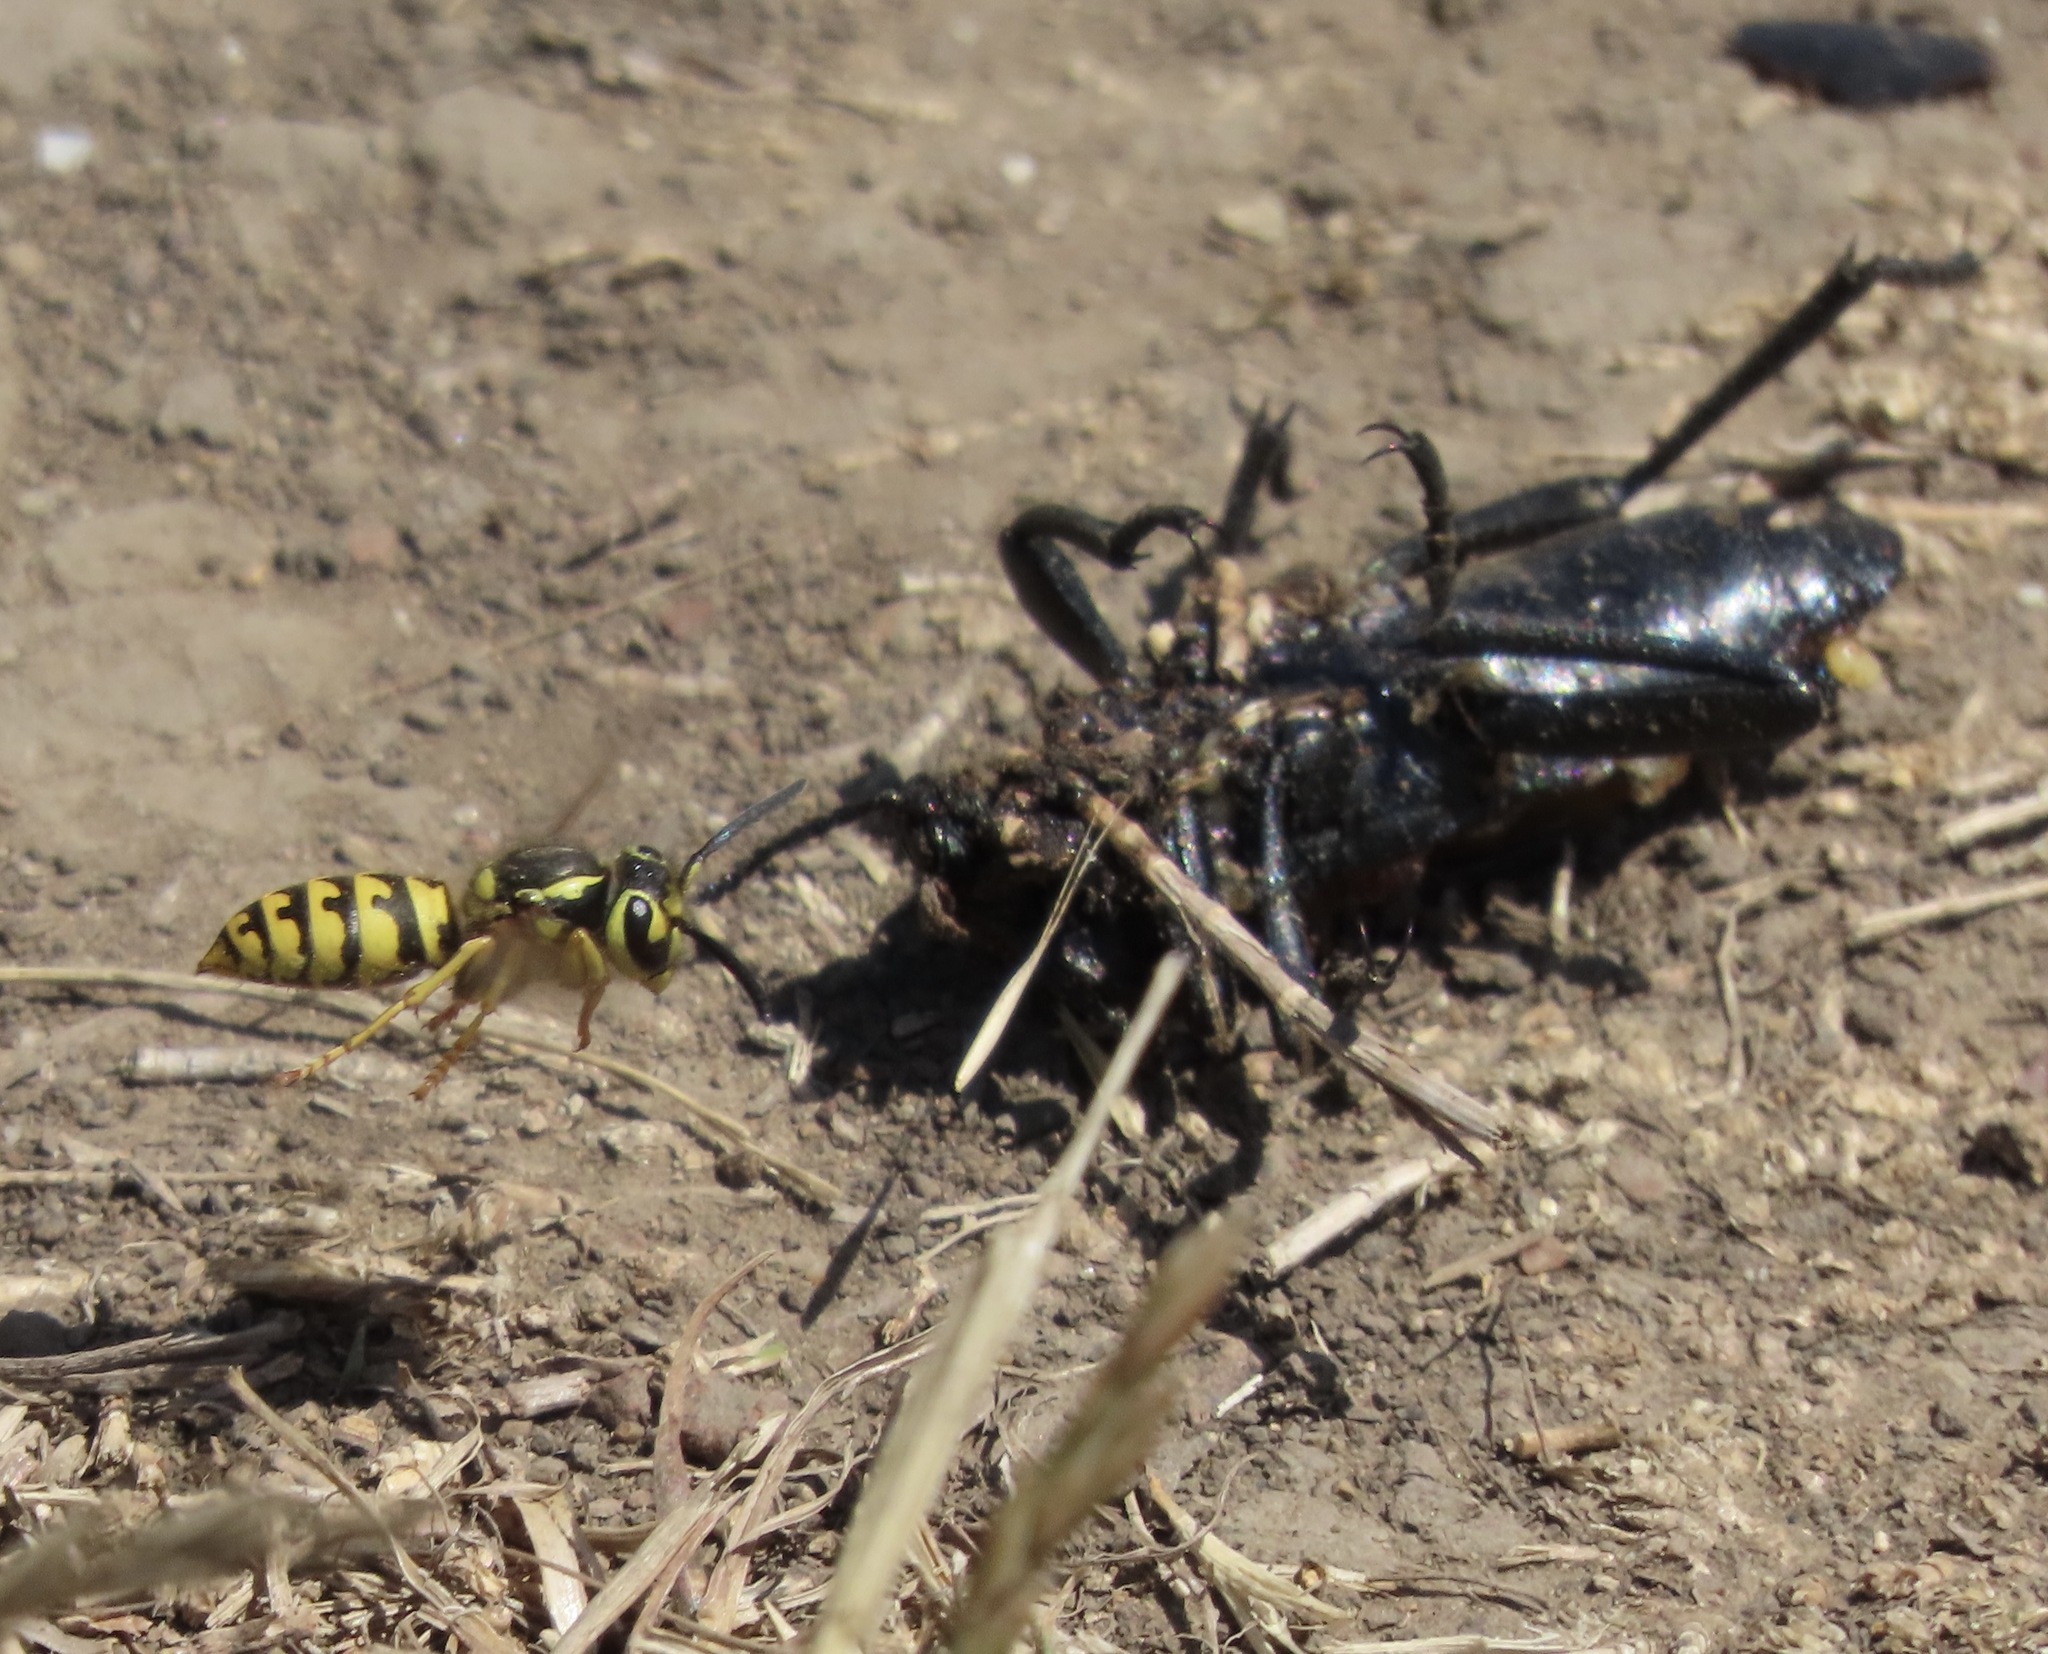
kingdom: Animalia
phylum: Arthropoda
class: Insecta
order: Hymenoptera
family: Vespidae
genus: Vespula
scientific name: Vespula pensylvanica
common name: Western yellowjacket
